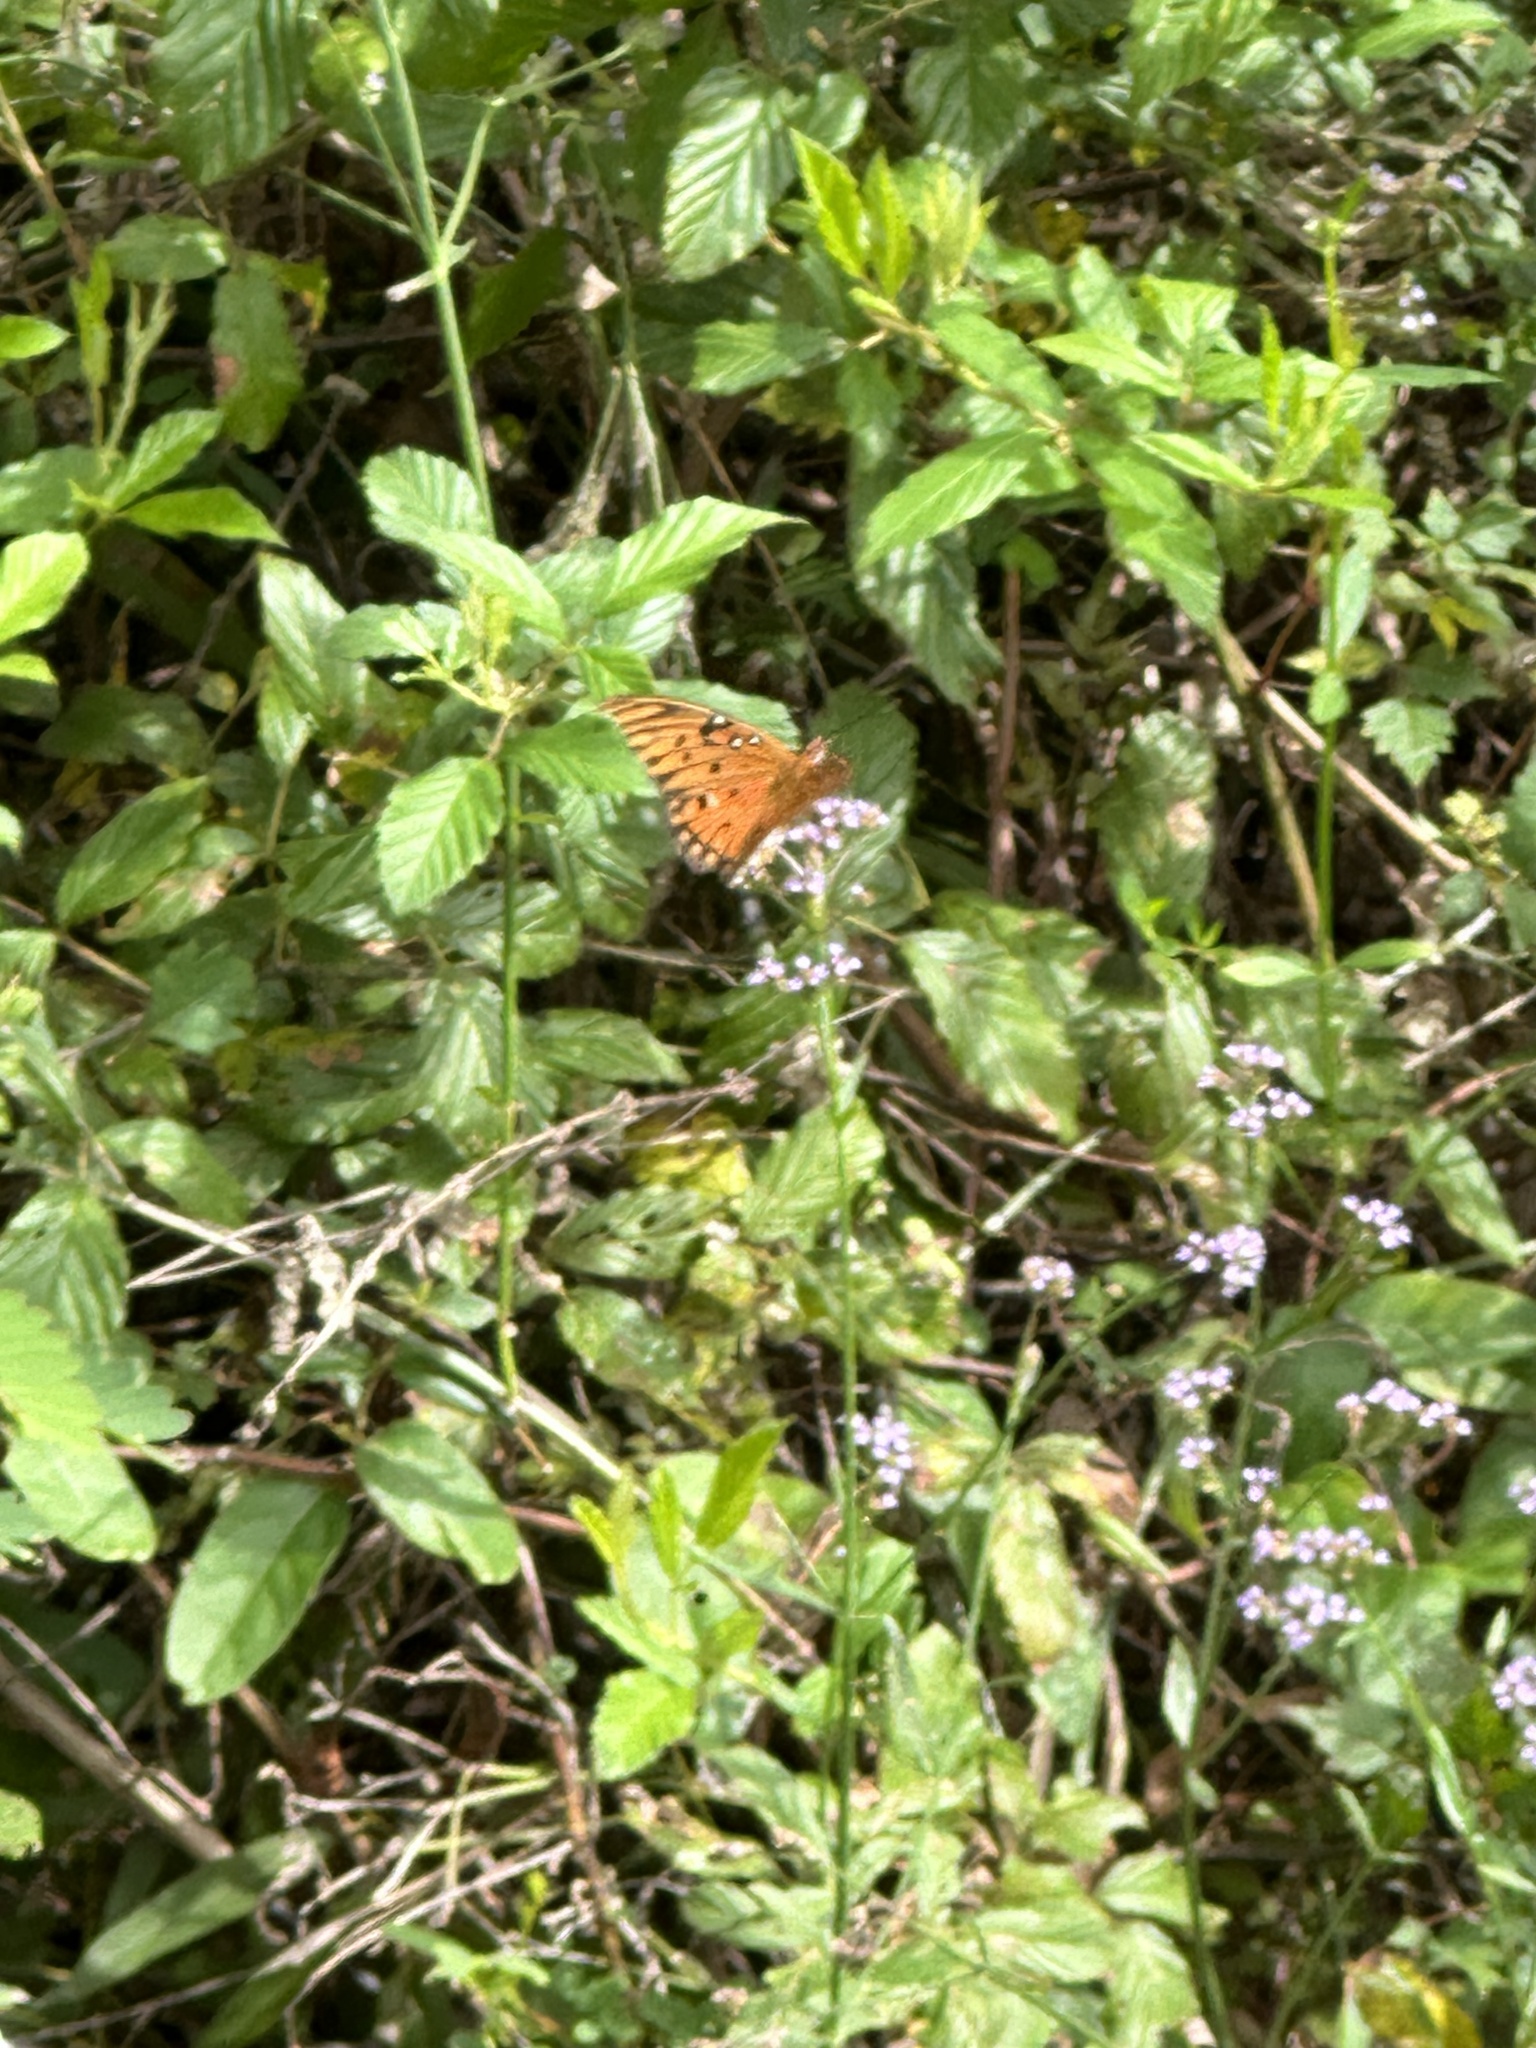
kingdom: Animalia
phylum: Arthropoda
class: Insecta
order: Lepidoptera
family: Nymphalidae
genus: Dione
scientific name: Dione vanillae
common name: Gulf fritillary
